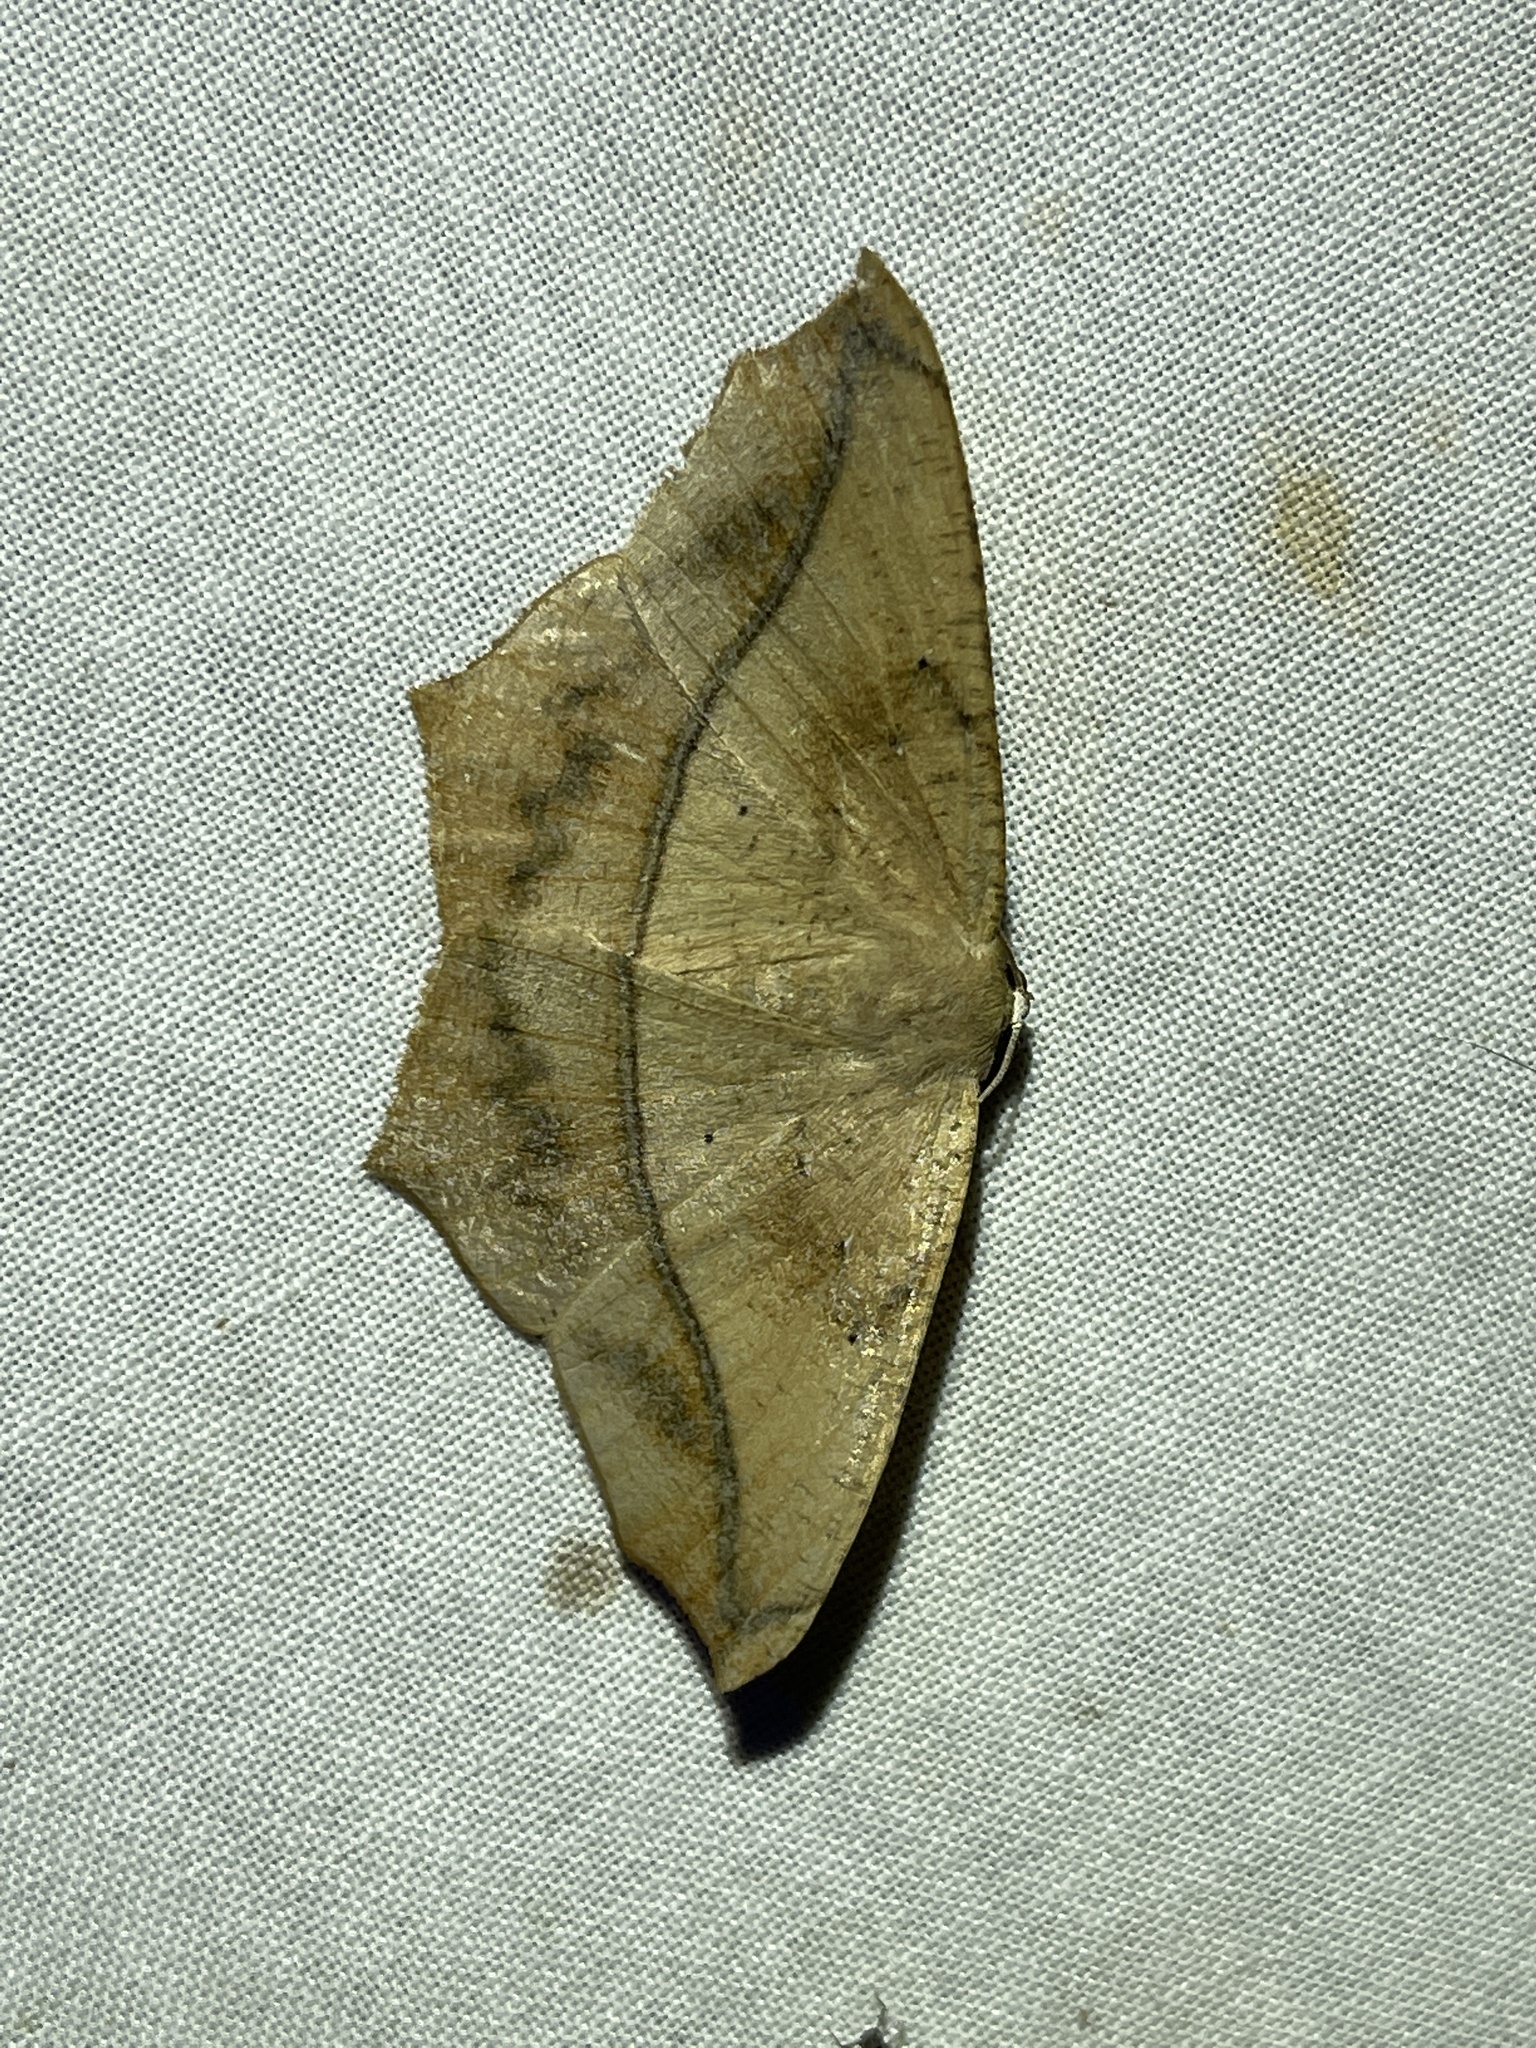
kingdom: Animalia
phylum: Arthropoda
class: Insecta
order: Lepidoptera
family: Geometridae
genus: Prochoerodes
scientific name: Prochoerodes lineola
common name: Large maple spanworm
